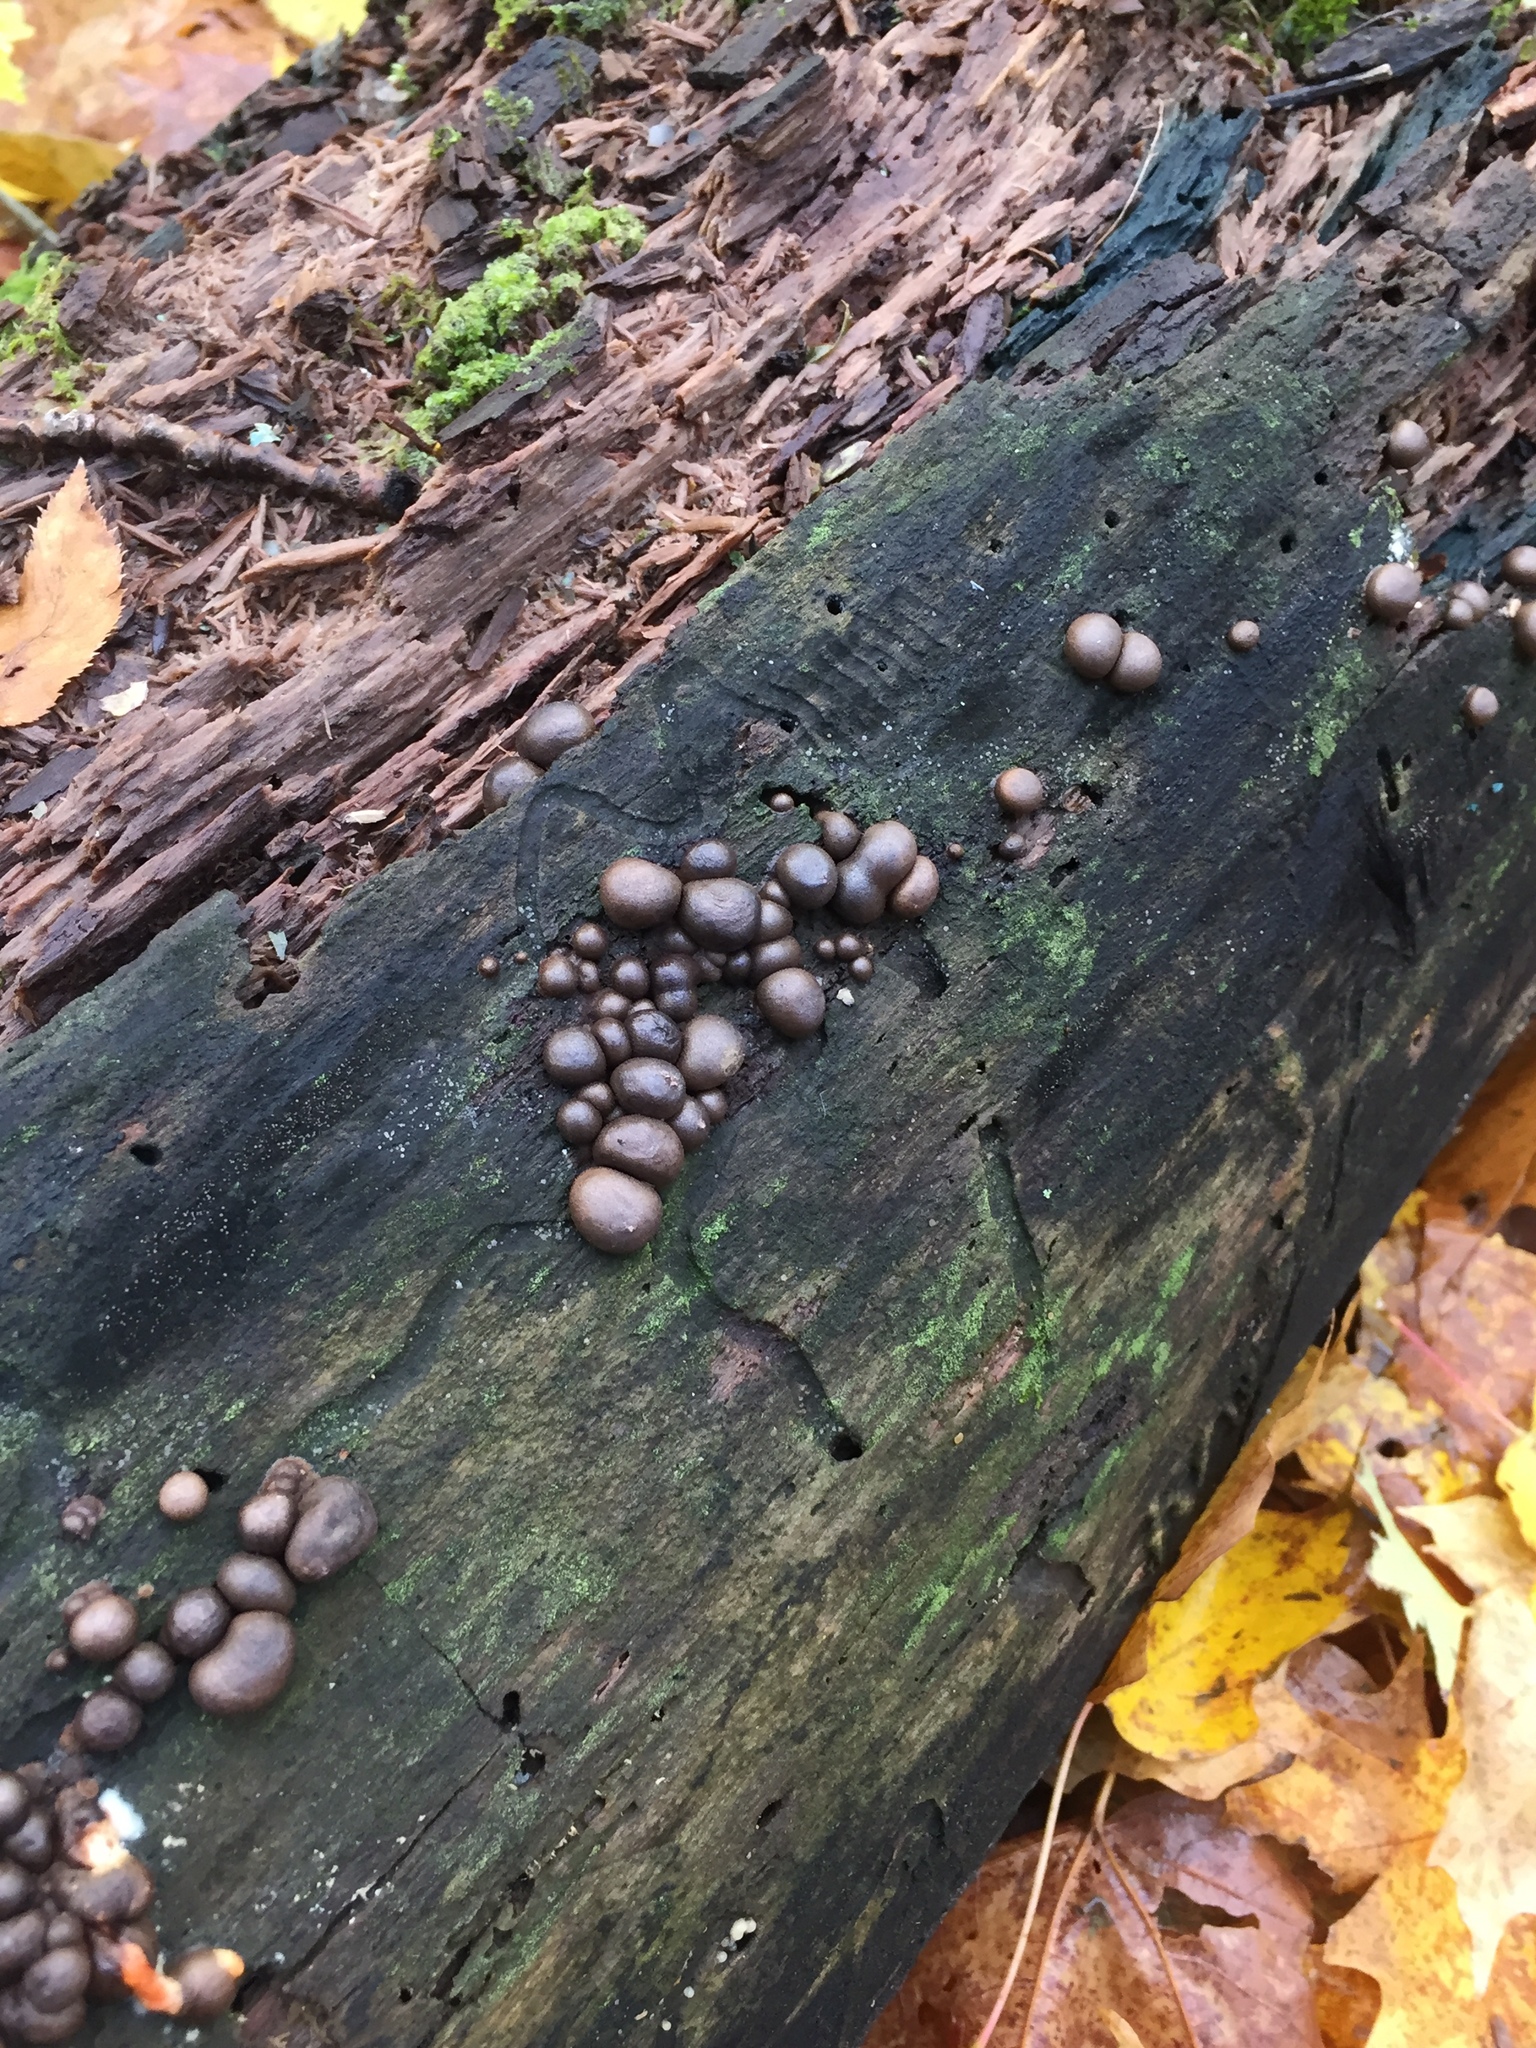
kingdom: Protozoa
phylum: Mycetozoa
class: Myxomycetes
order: Cribrariales
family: Tubiferaceae
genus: Lycogala
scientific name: Lycogala epidendrum
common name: Wolf's milk
